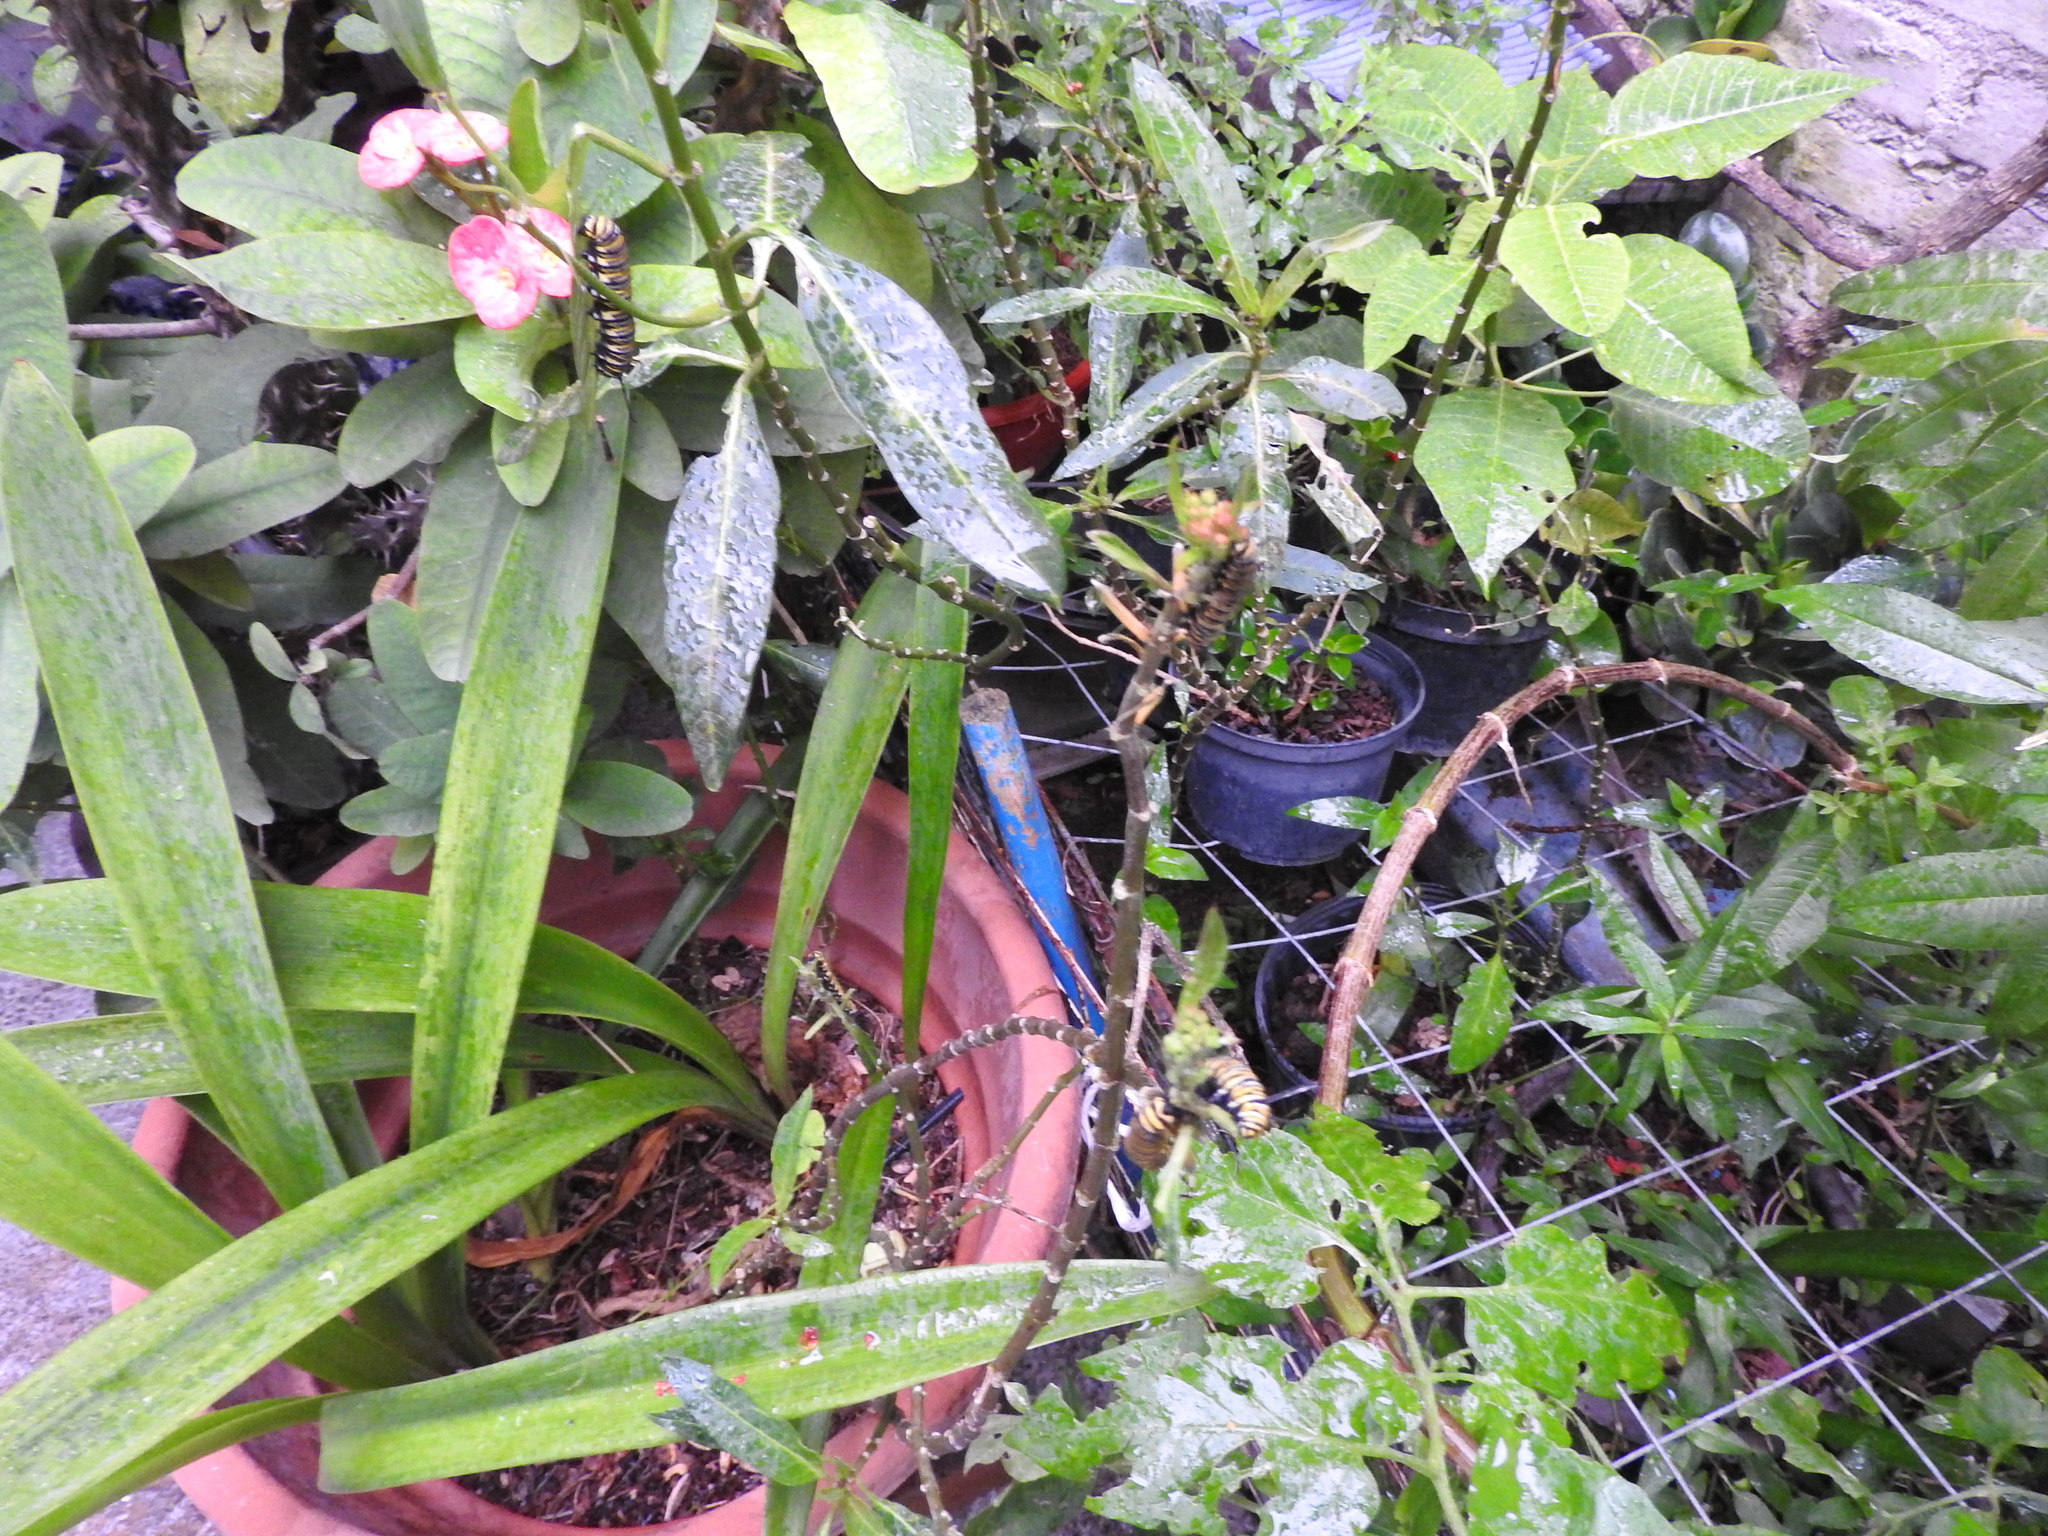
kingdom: Animalia
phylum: Arthropoda
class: Insecta
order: Lepidoptera
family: Nymphalidae
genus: Danaus
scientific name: Danaus plexippus
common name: Monarch
